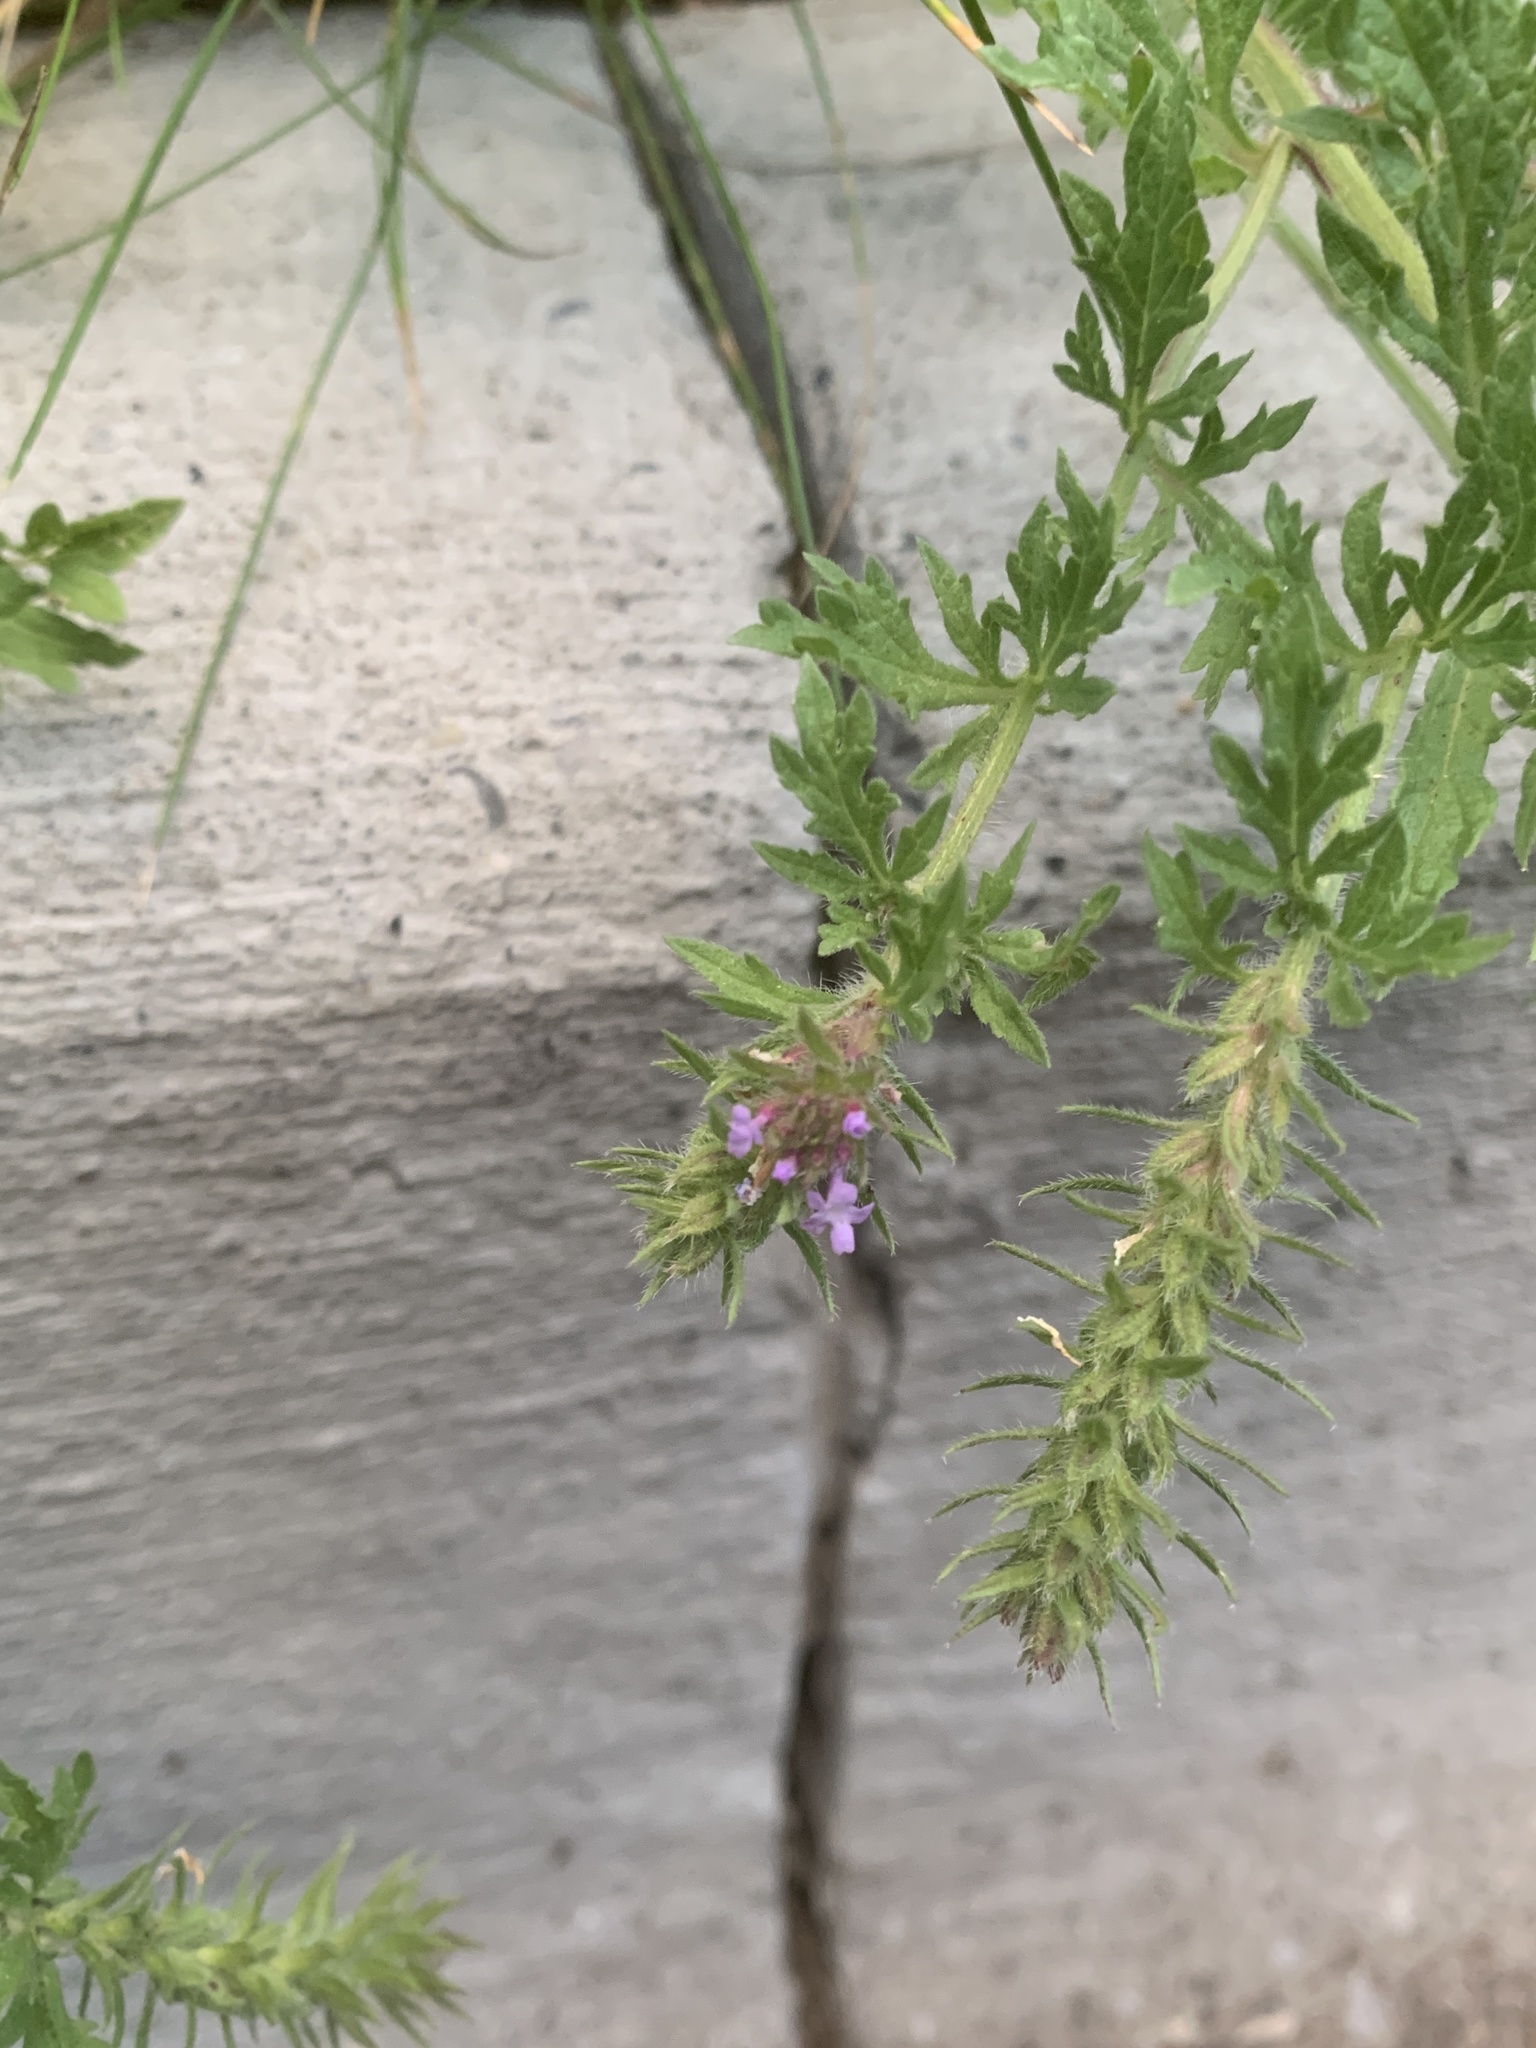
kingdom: Plantae
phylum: Tracheophyta
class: Magnoliopsida
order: Lamiales
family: Verbenaceae
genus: Verbena
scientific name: Verbena bracteata
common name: Bracted vervain
